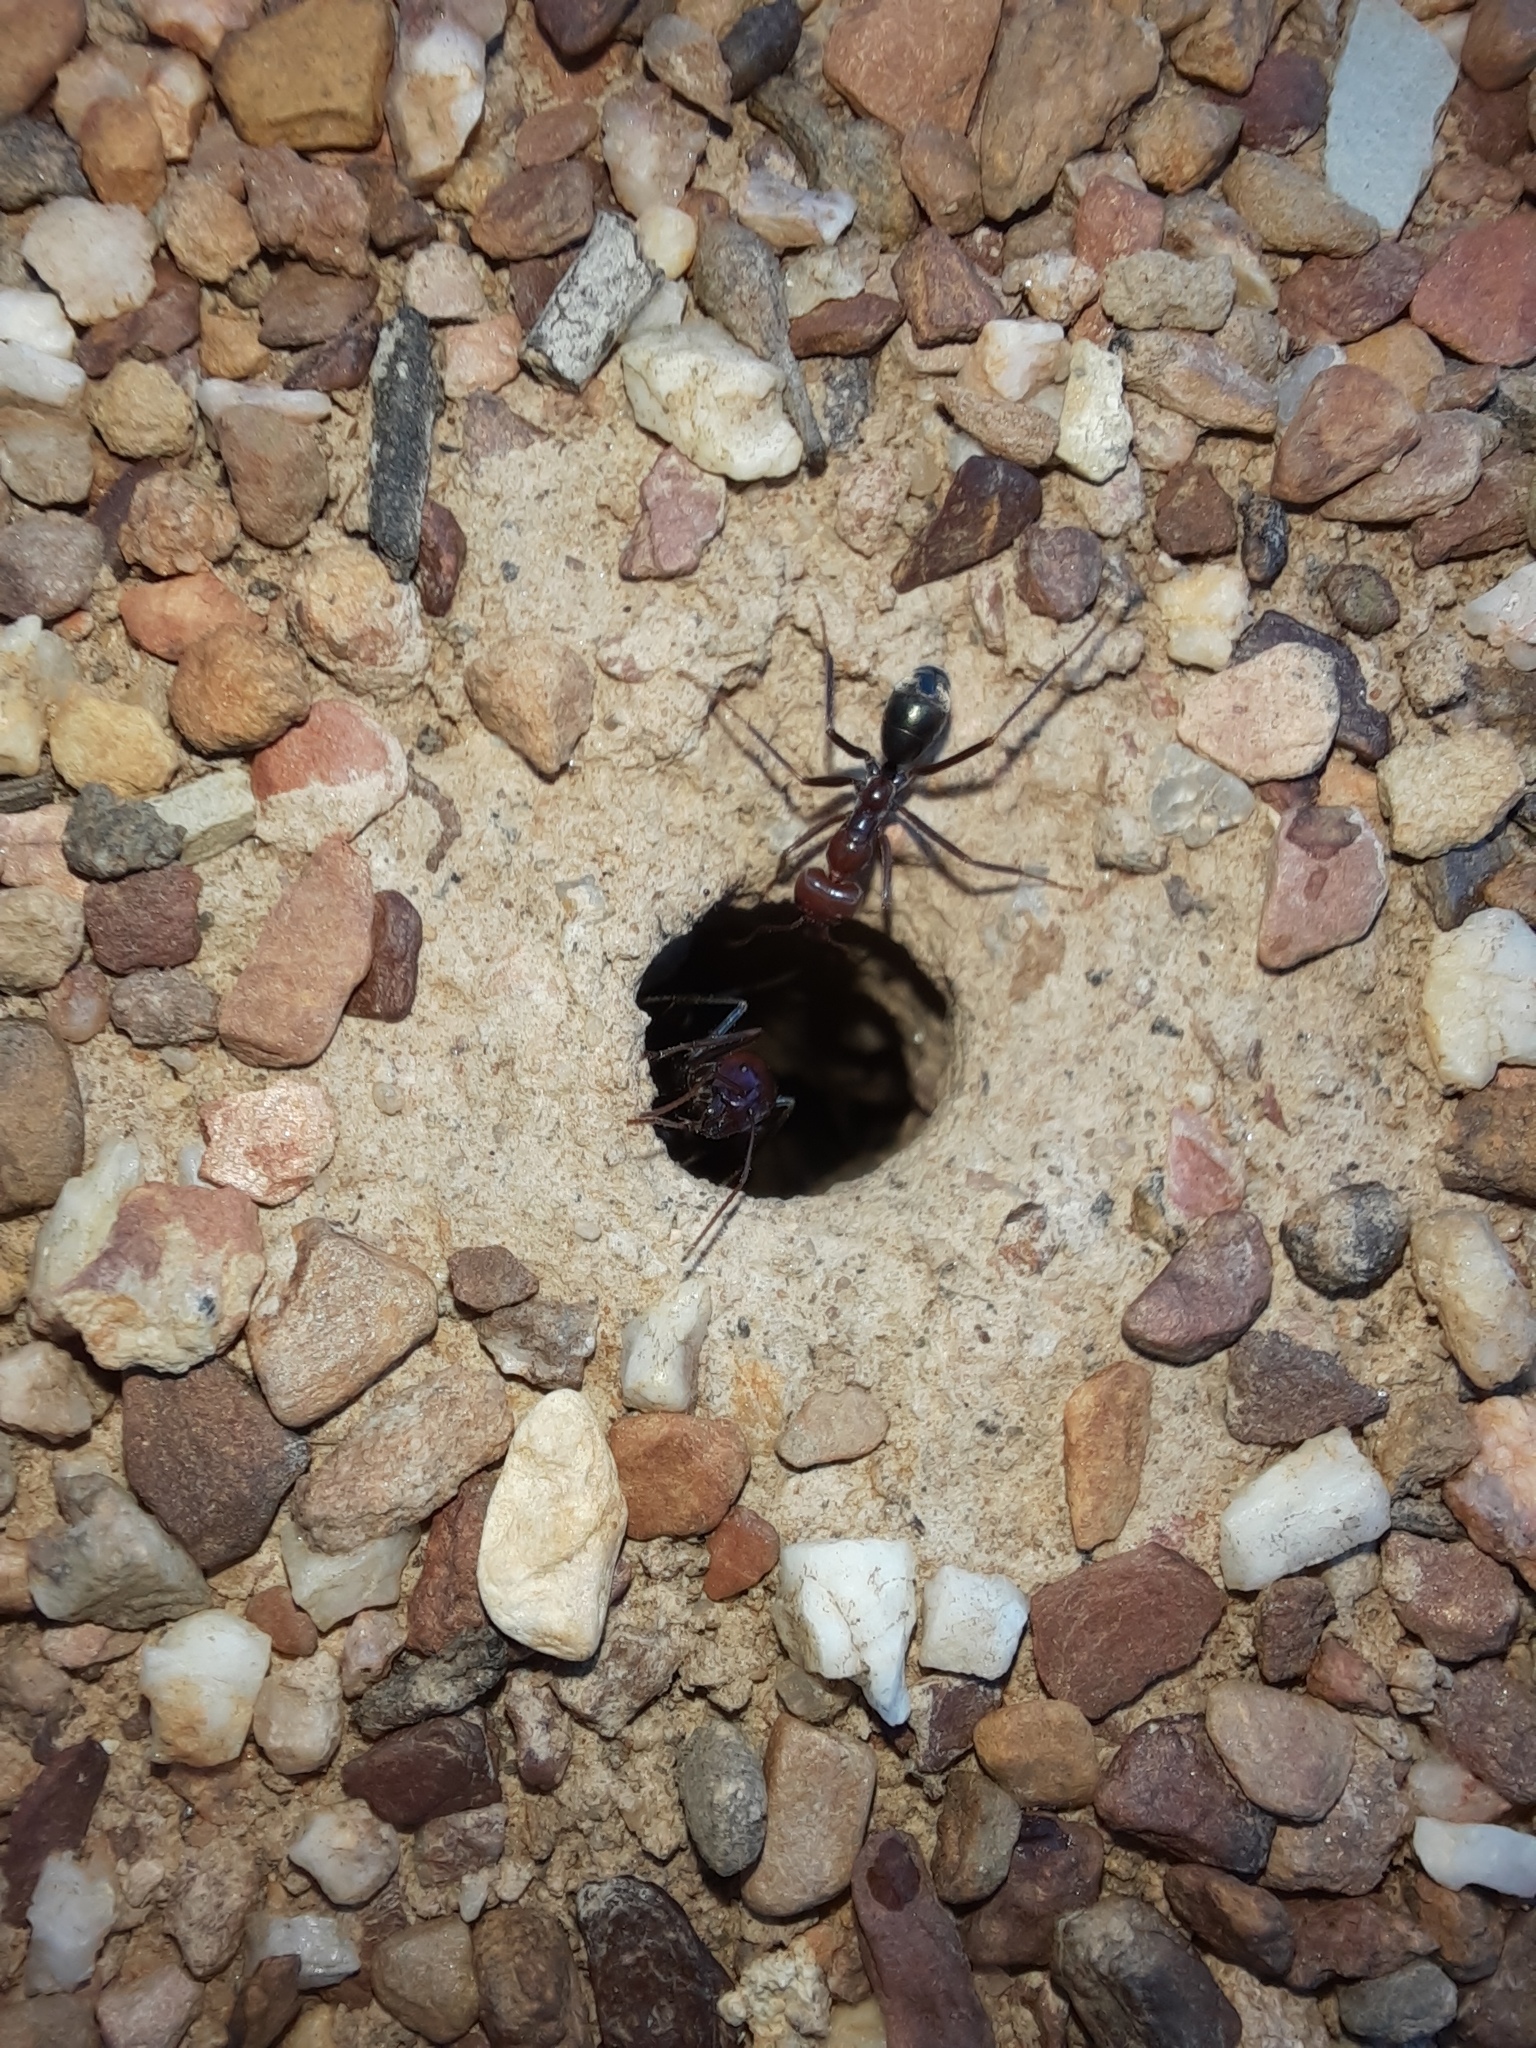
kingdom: Animalia
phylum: Arthropoda
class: Insecta
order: Hymenoptera
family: Formicidae
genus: Iridomyrmex
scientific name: Iridomyrmex purpureus
